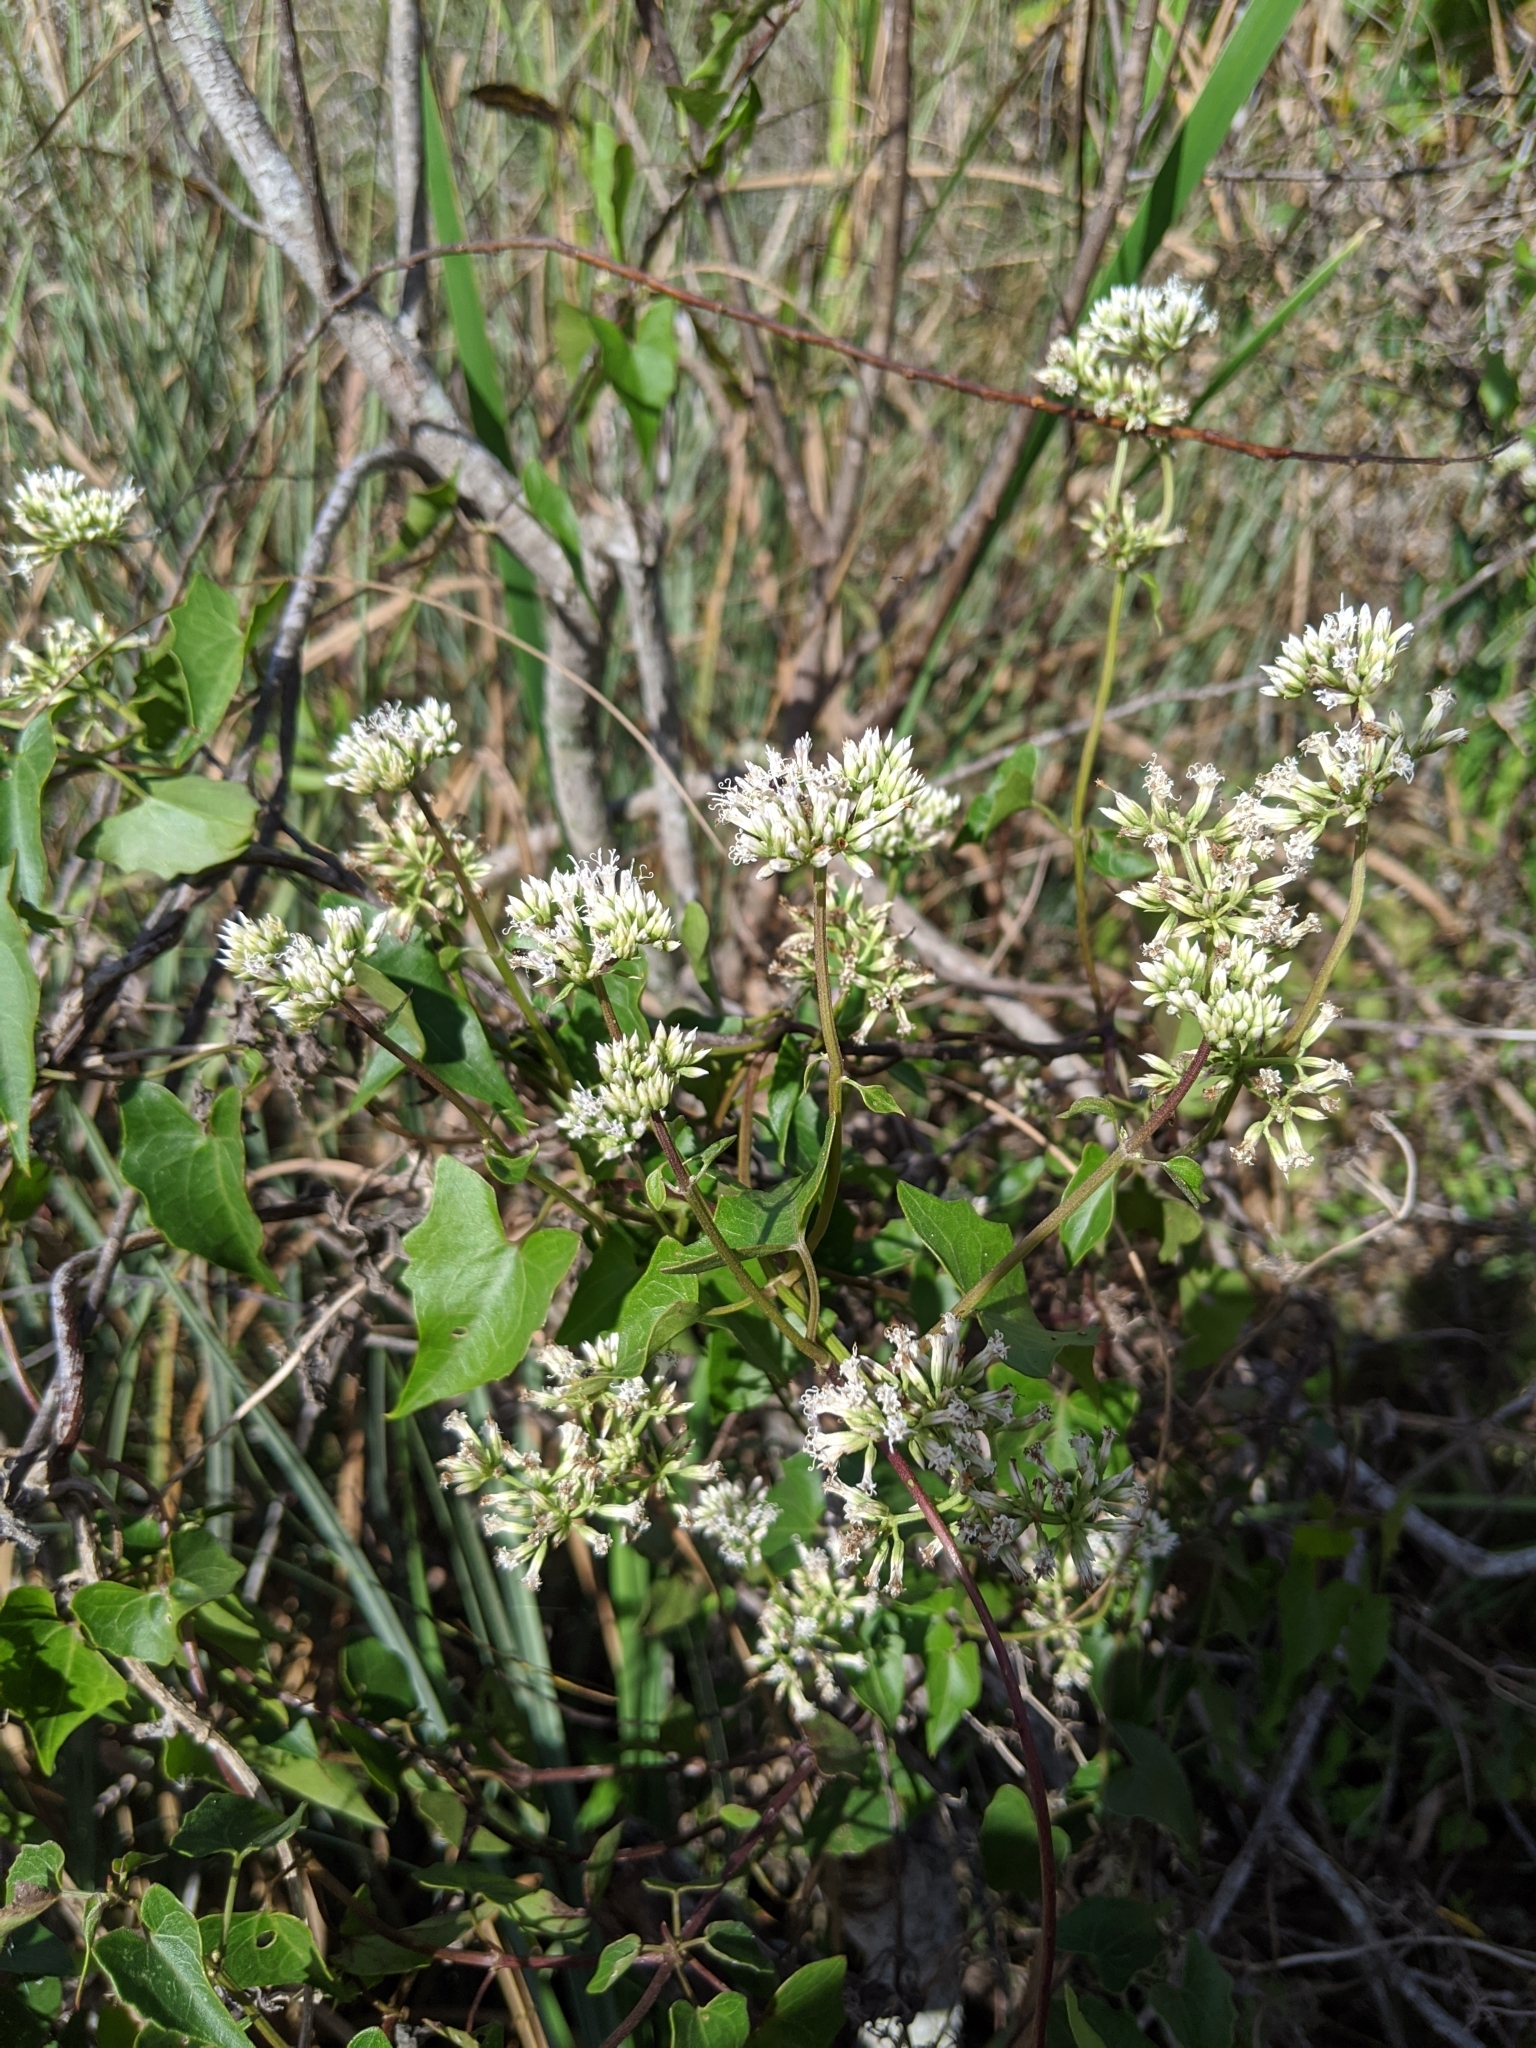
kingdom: Plantae
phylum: Tracheophyta
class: Magnoliopsida
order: Asterales
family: Asteraceae
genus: Mikania
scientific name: Mikania scandens
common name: Climbing hempvine
